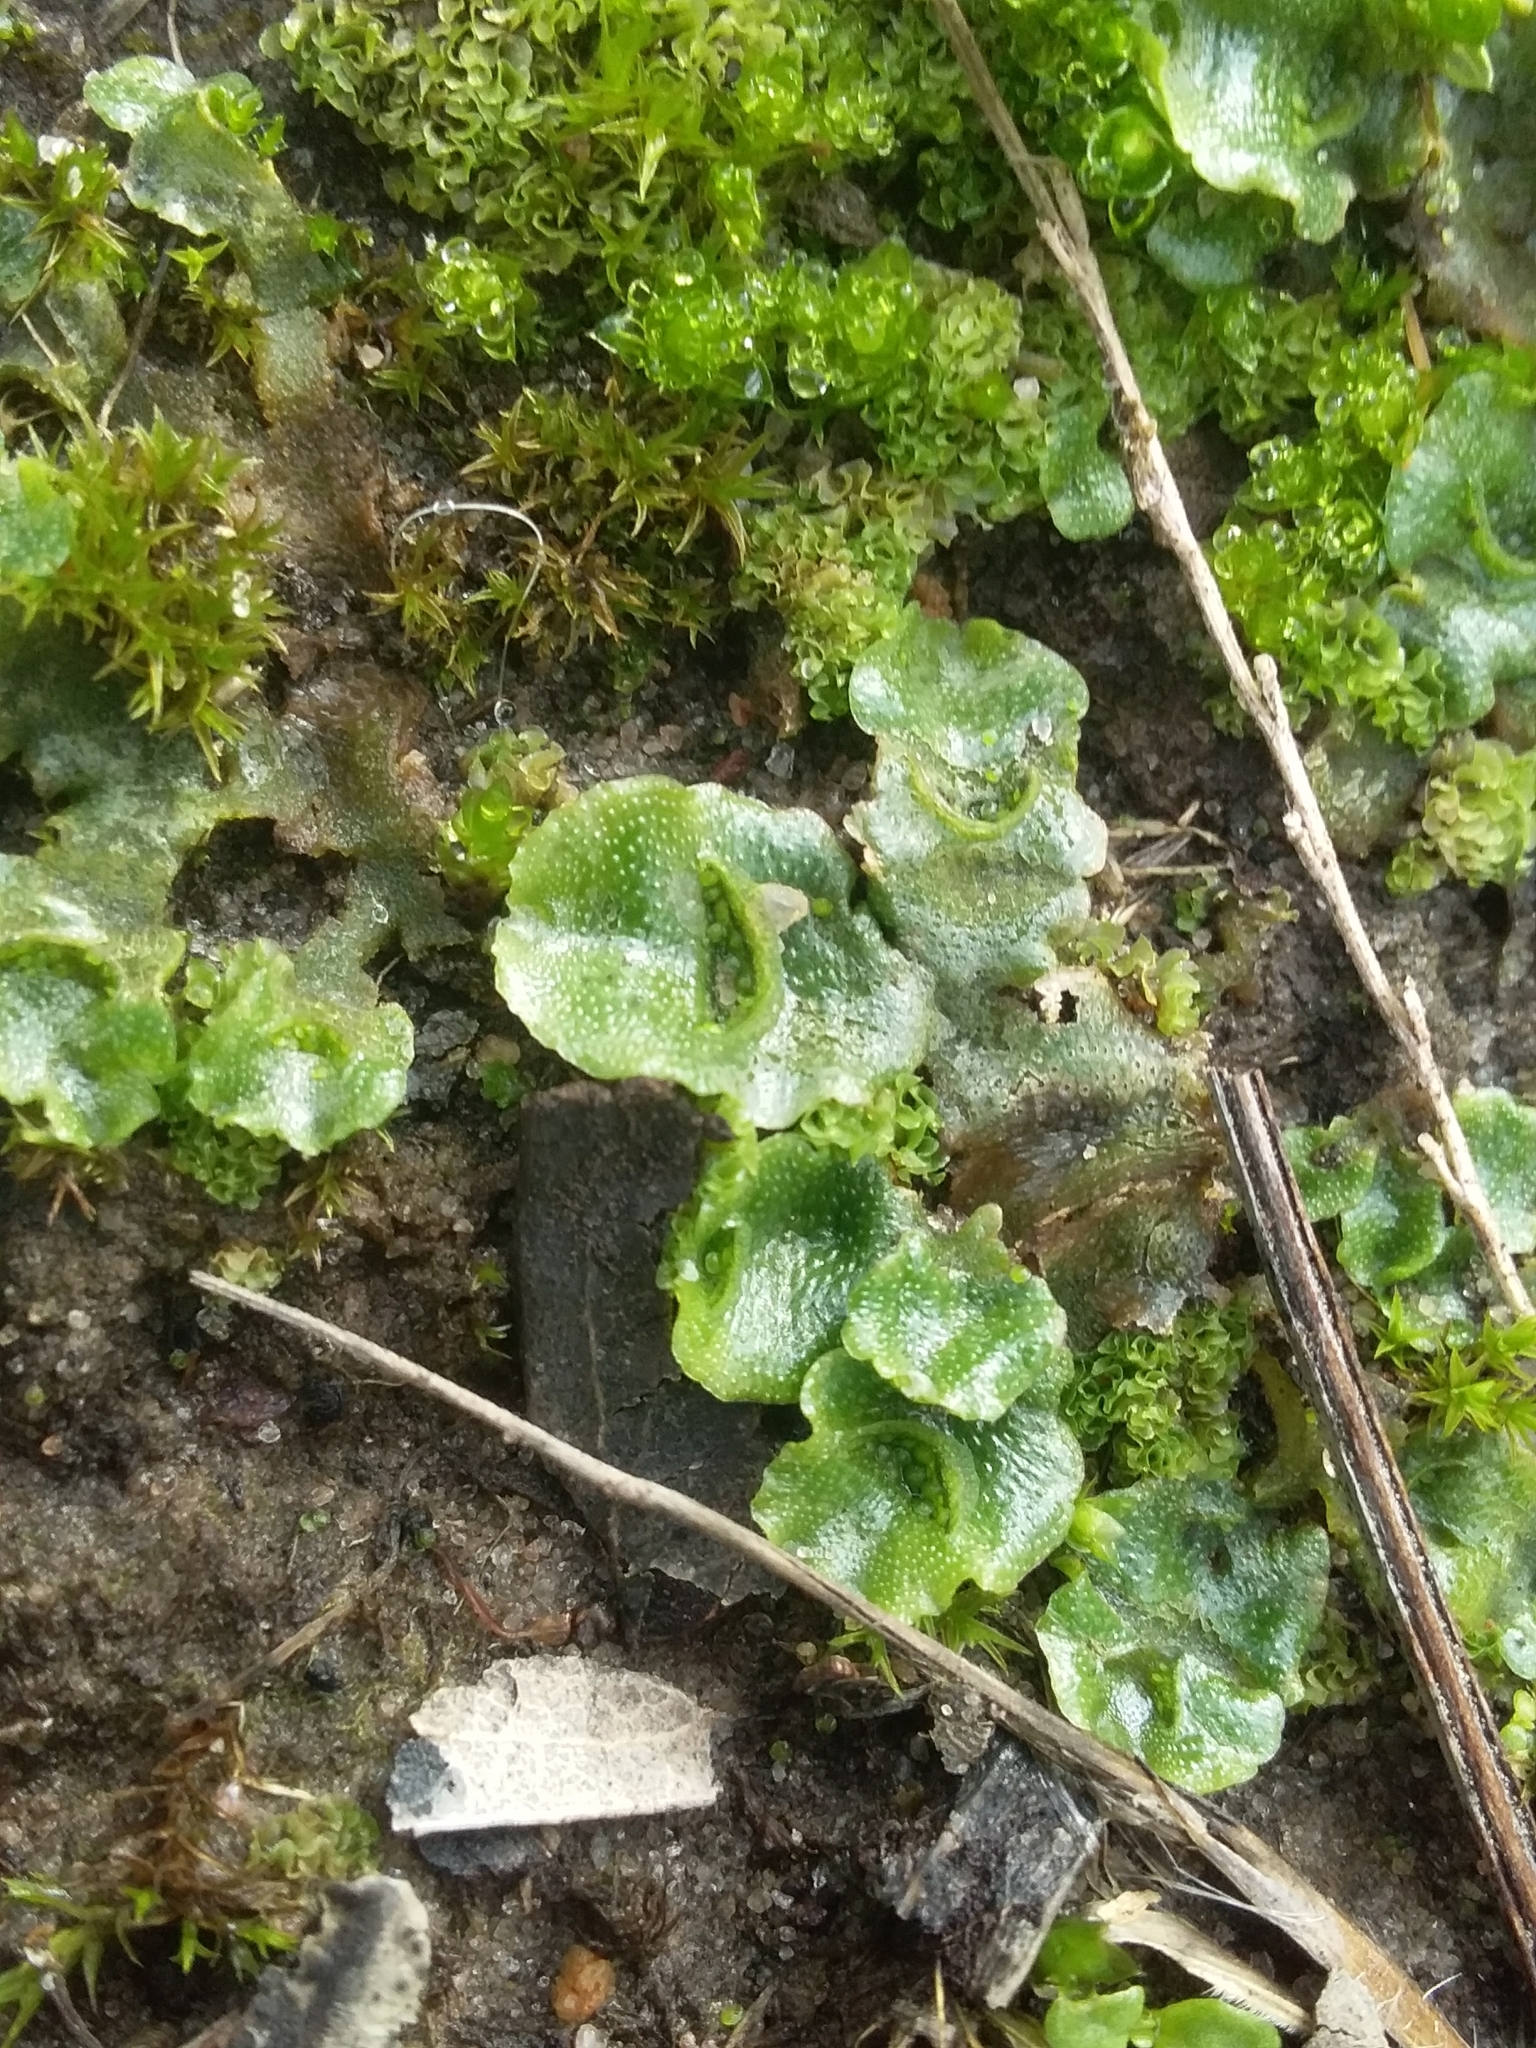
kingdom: Plantae
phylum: Marchantiophyta
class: Marchantiopsida
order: Lunulariales
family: Lunulariaceae
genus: Lunularia
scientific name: Lunularia cruciata
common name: Crescent-cup liverwort
